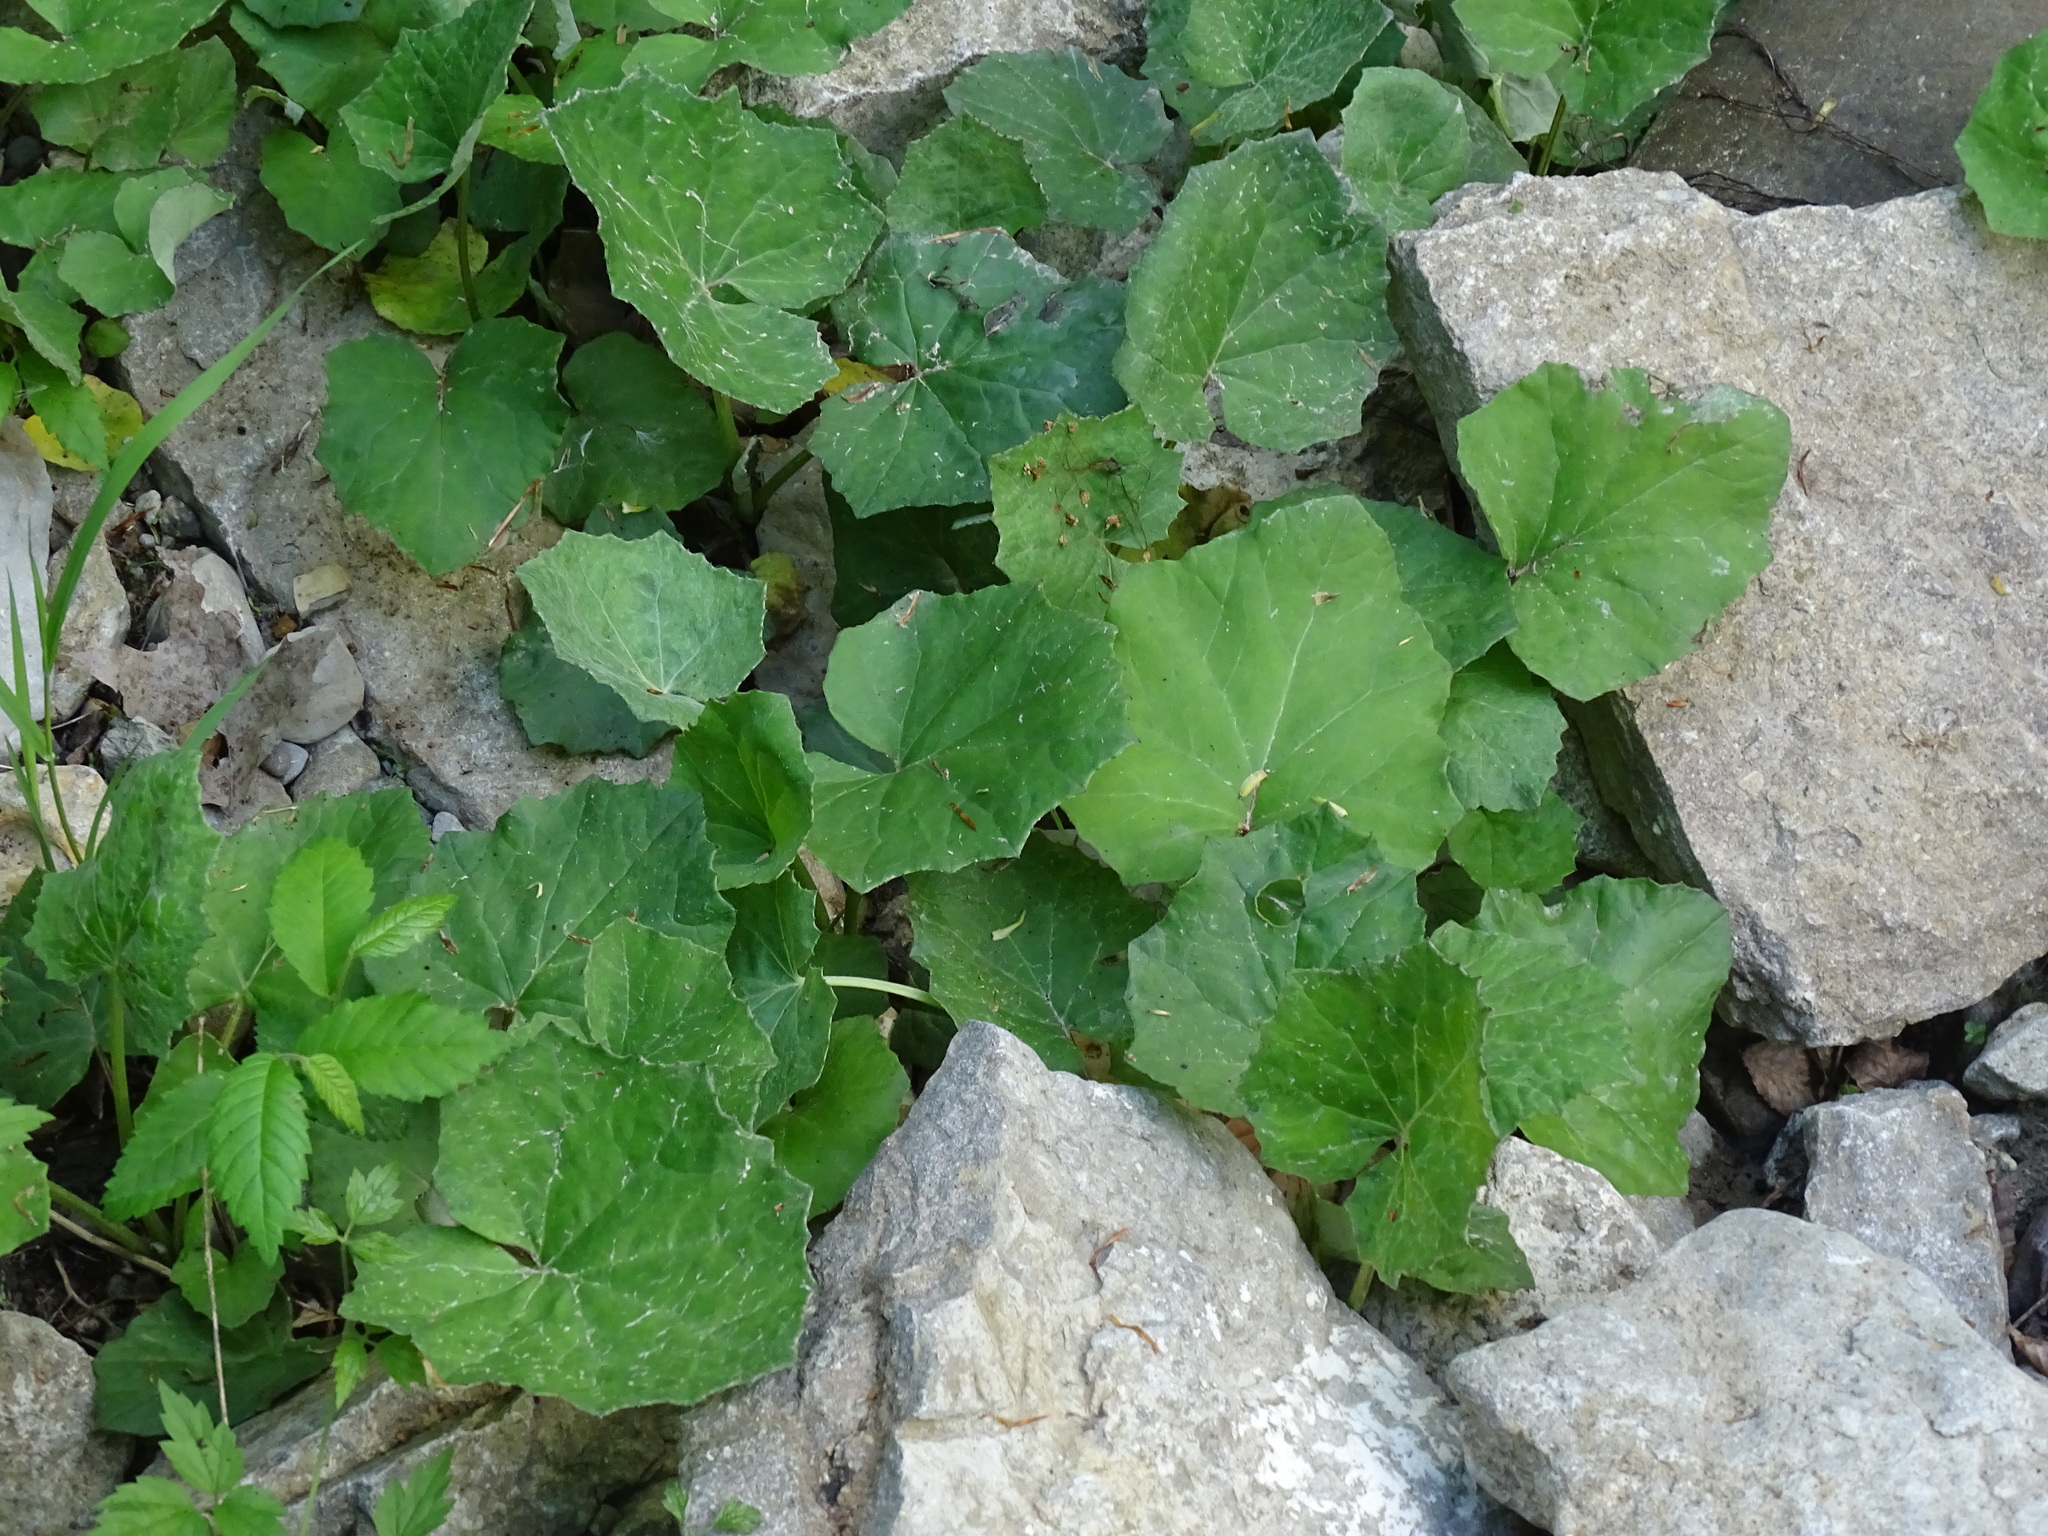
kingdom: Plantae
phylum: Tracheophyta
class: Magnoliopsida
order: Asterales
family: Asteraceae
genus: Tussilago
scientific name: Tussilago farfara
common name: Coltsfoot
